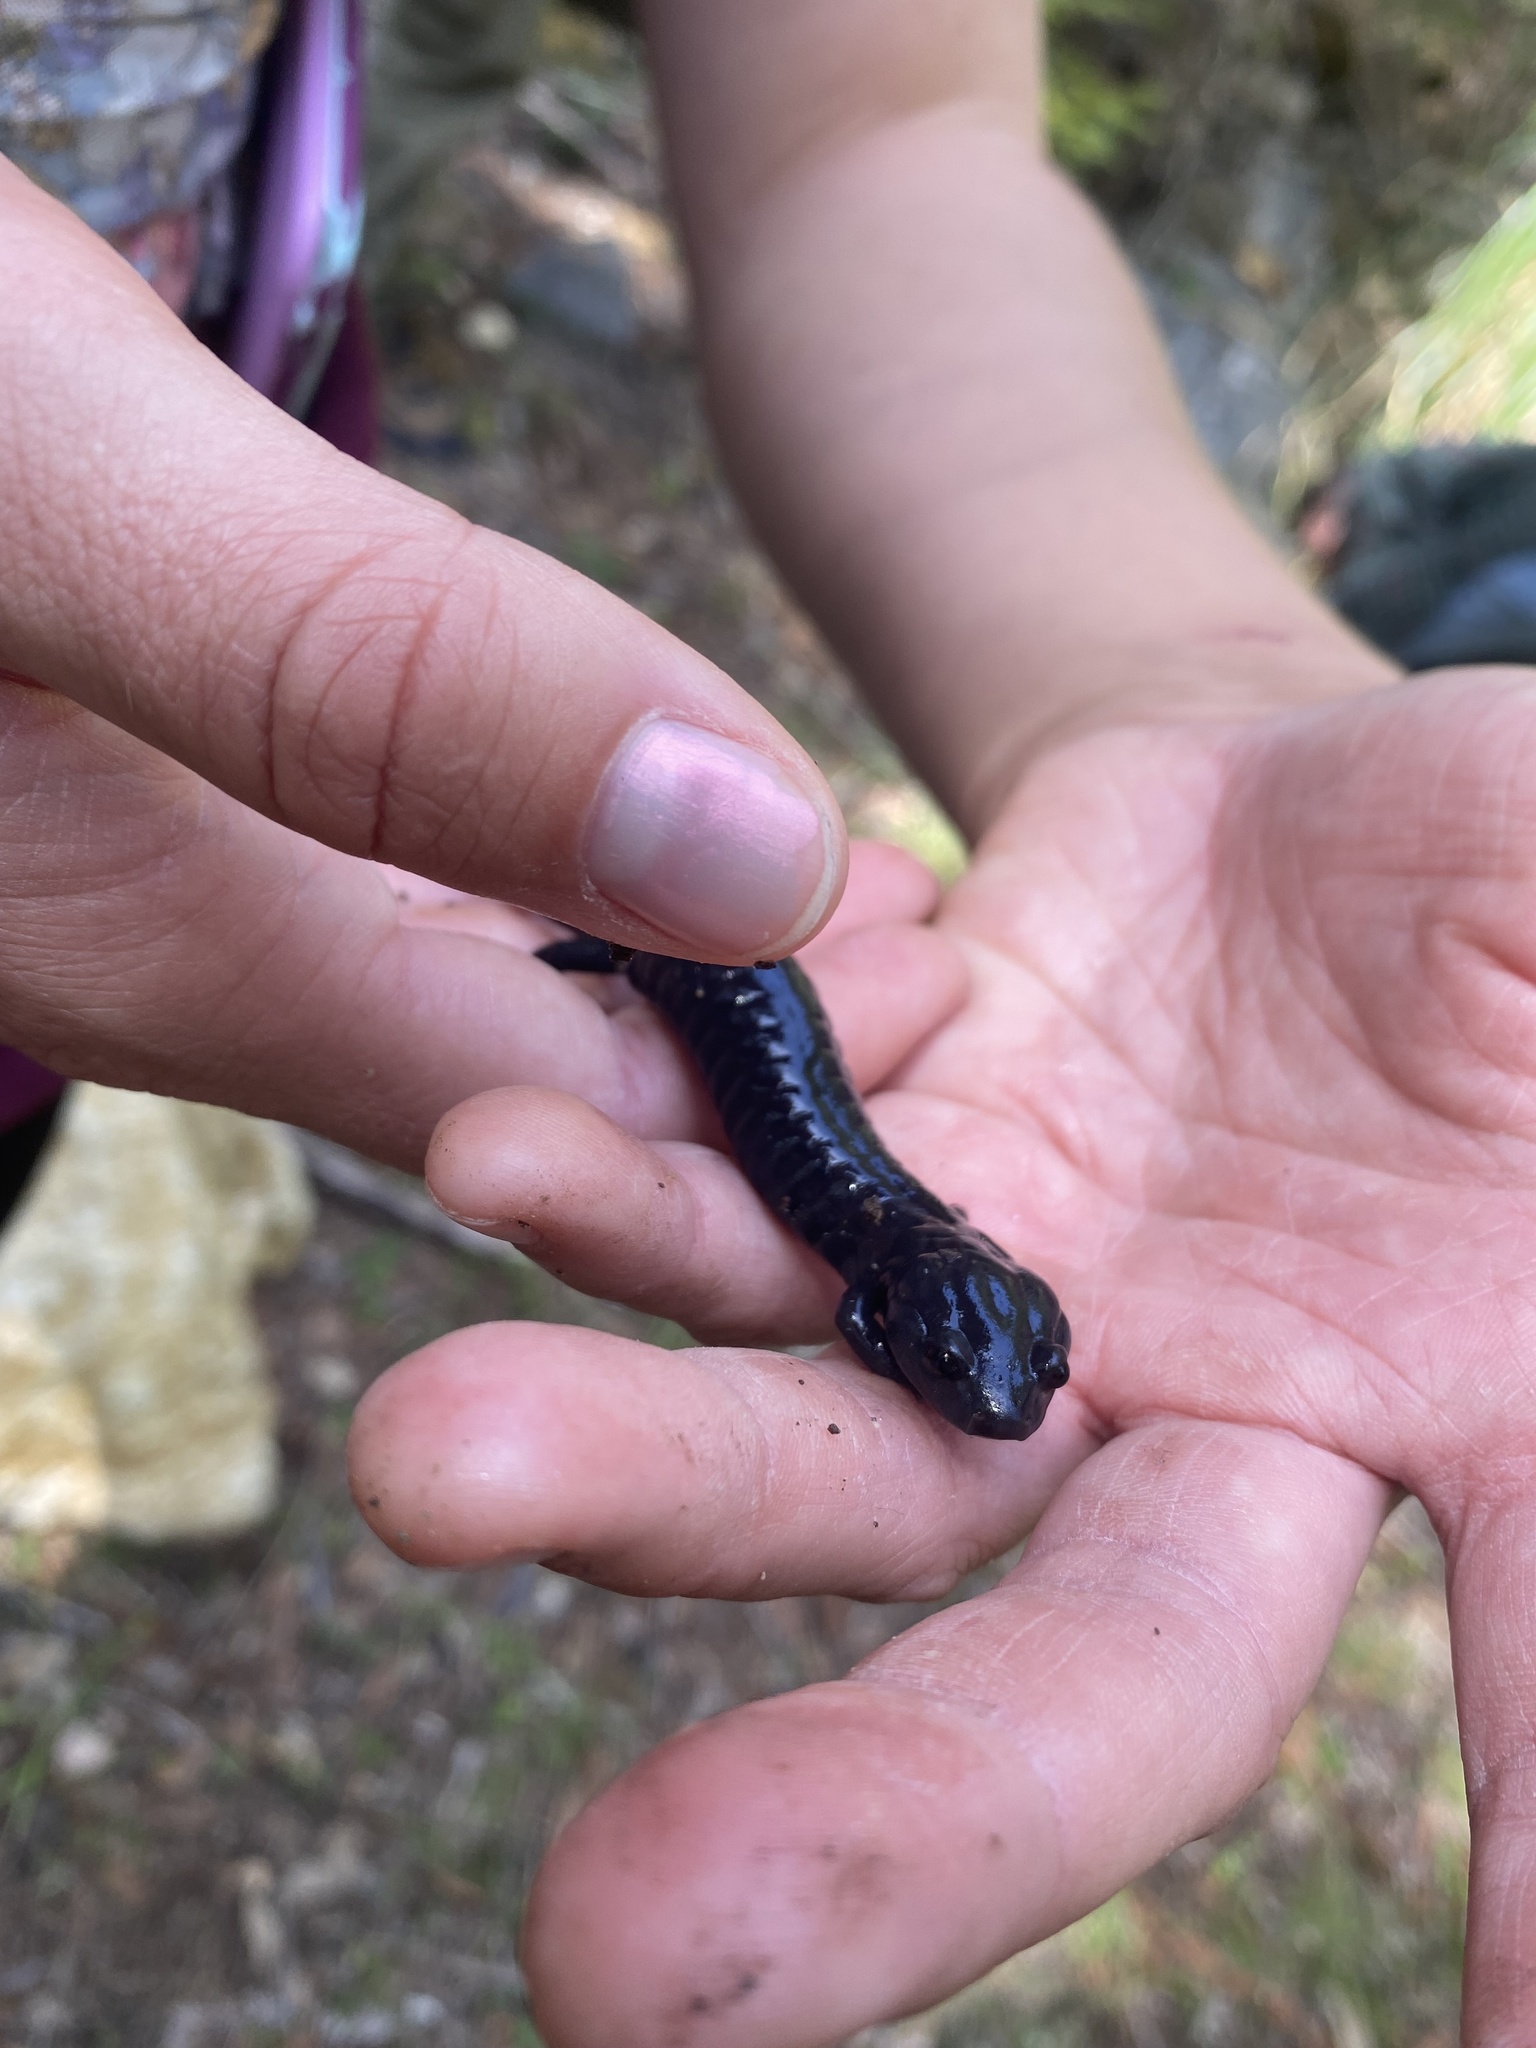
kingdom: Animalia
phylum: Chordata
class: Amphibia
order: Caudata
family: Plethodontidae
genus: Aneides
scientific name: Aneides niger
